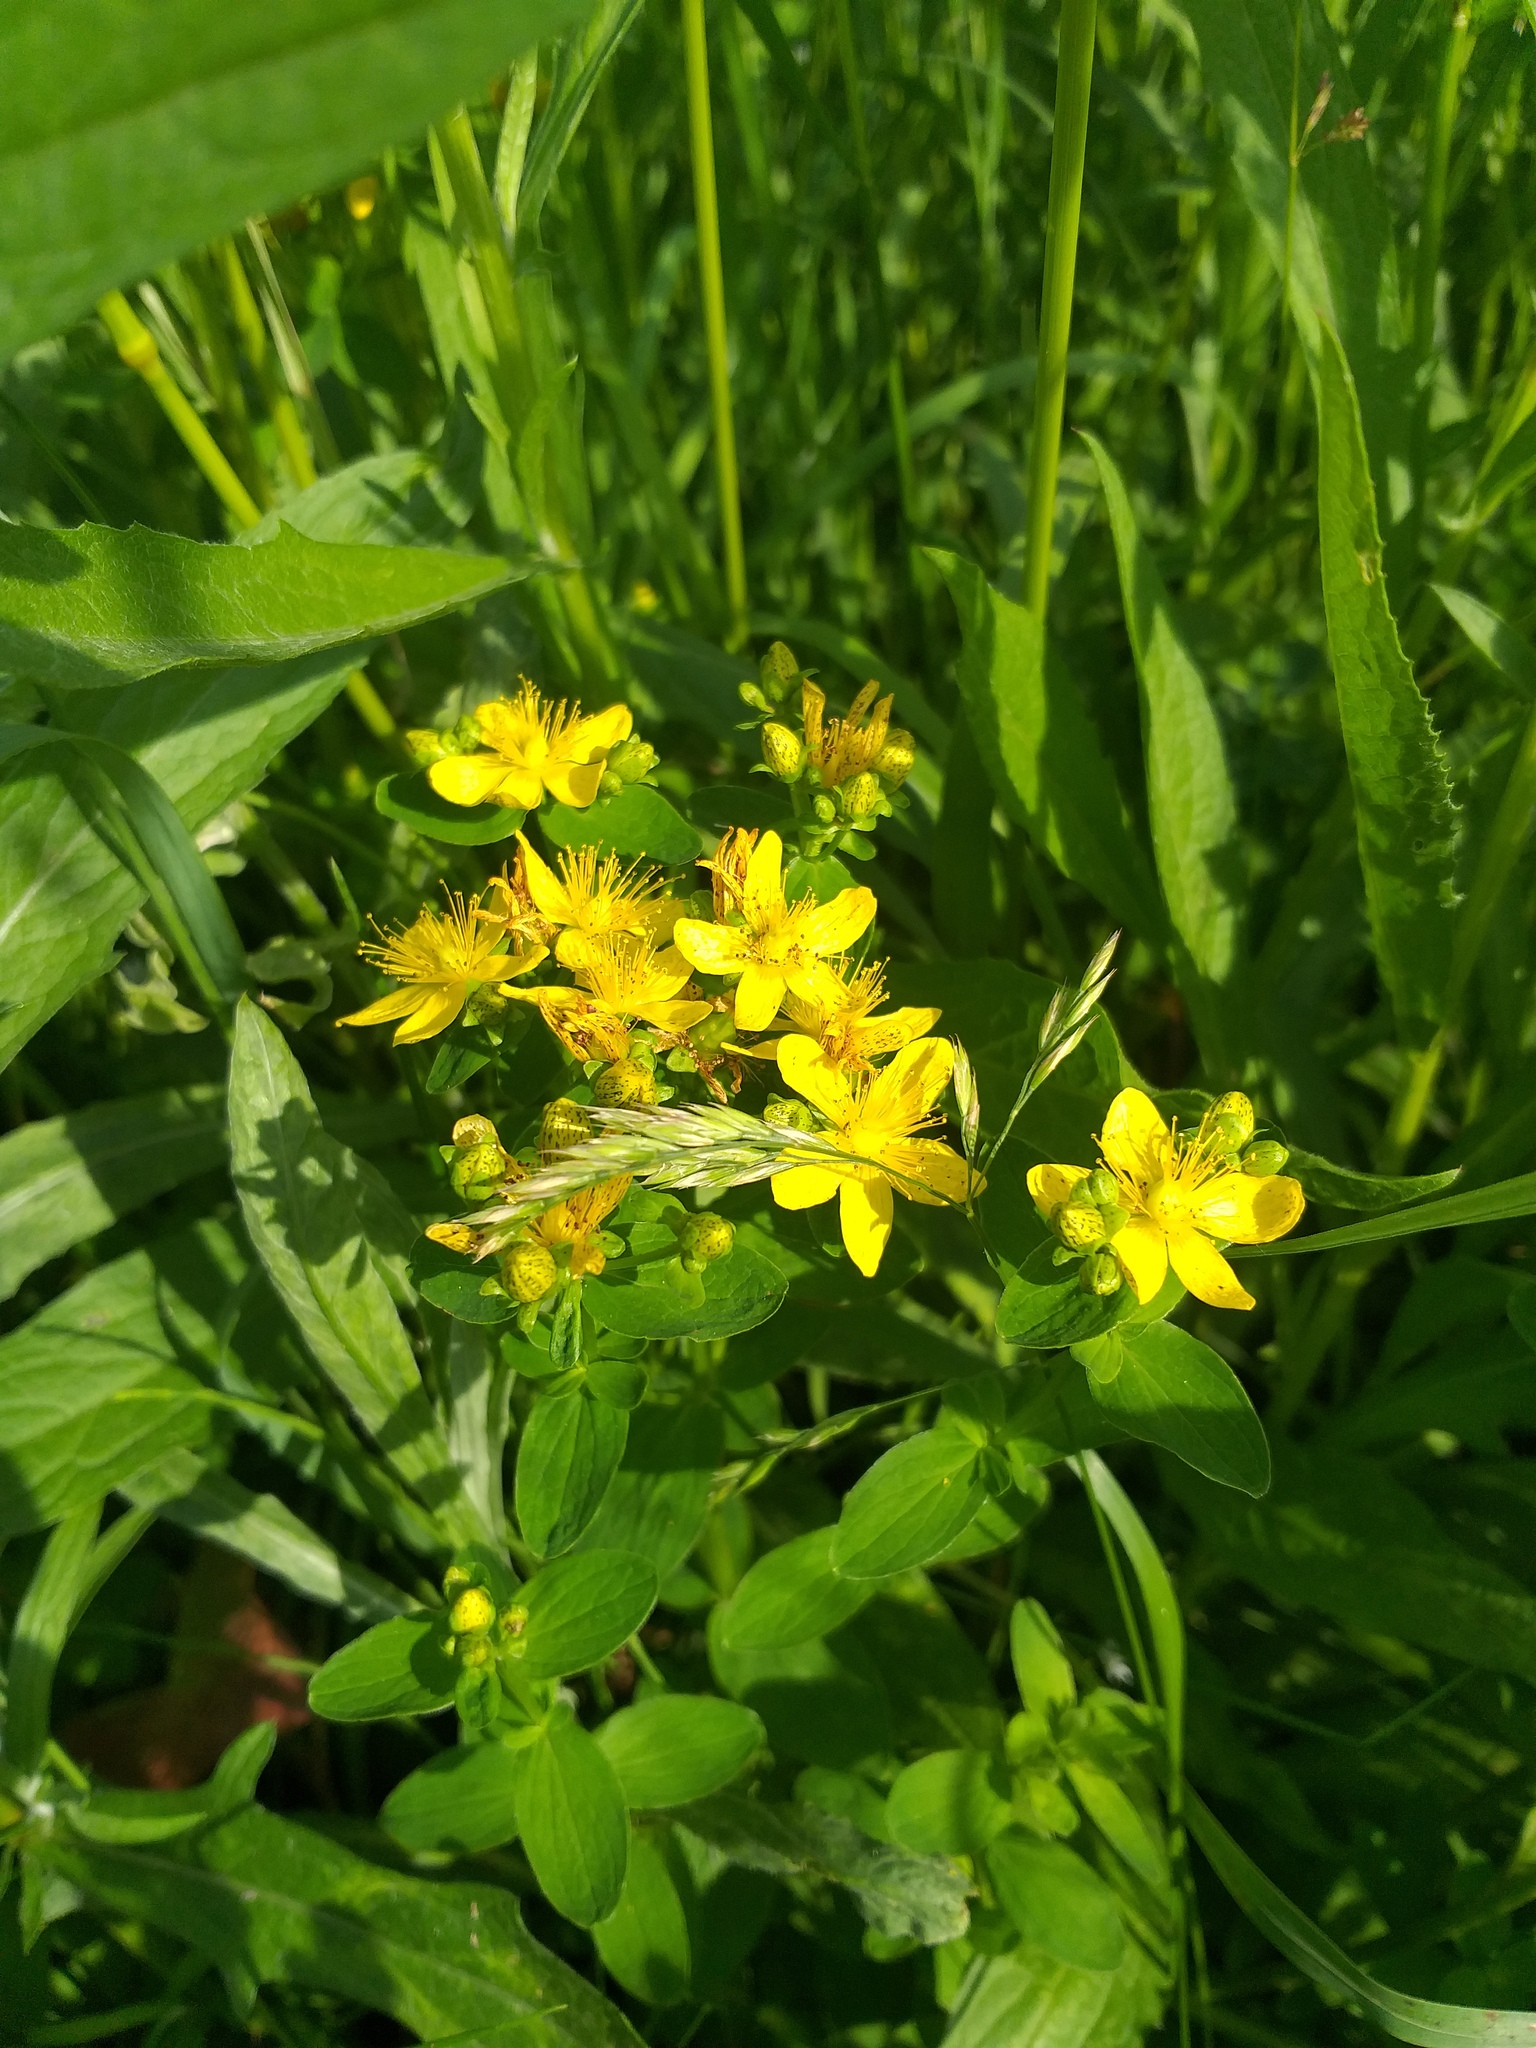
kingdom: Plantae
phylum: Tracheophyta
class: Magnoliopsida
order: Malpighiales
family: Hypericaceae
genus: Hypericum
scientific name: Hypericum maculatum
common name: Imperforate st. john's-wort
